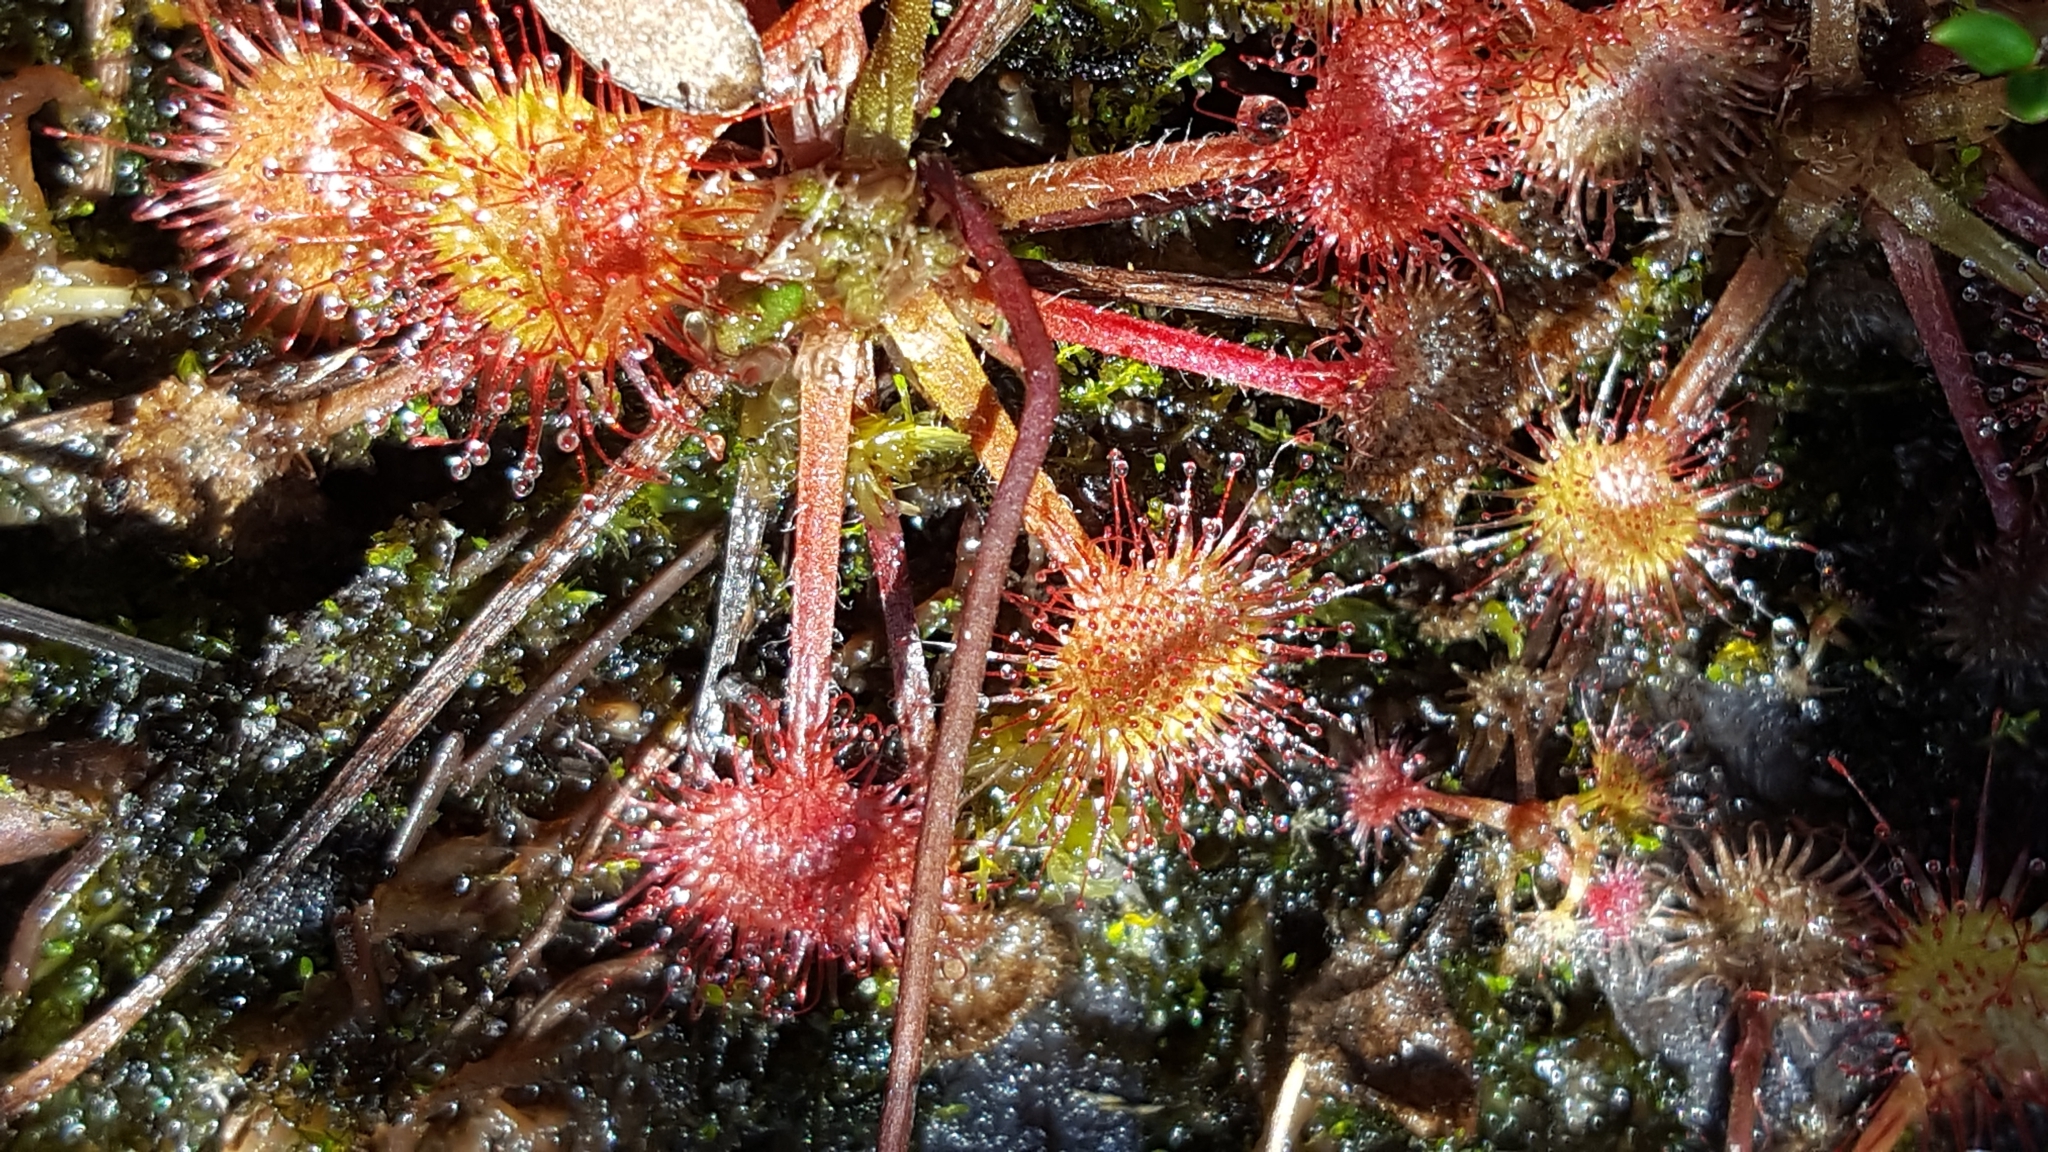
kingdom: Plantae
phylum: Tracheophyta
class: Magnoliopsida
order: Caryophyllales
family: Droseraceae
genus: Drosera
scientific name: Drosera rotundifolia
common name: Round-leaved sundew
